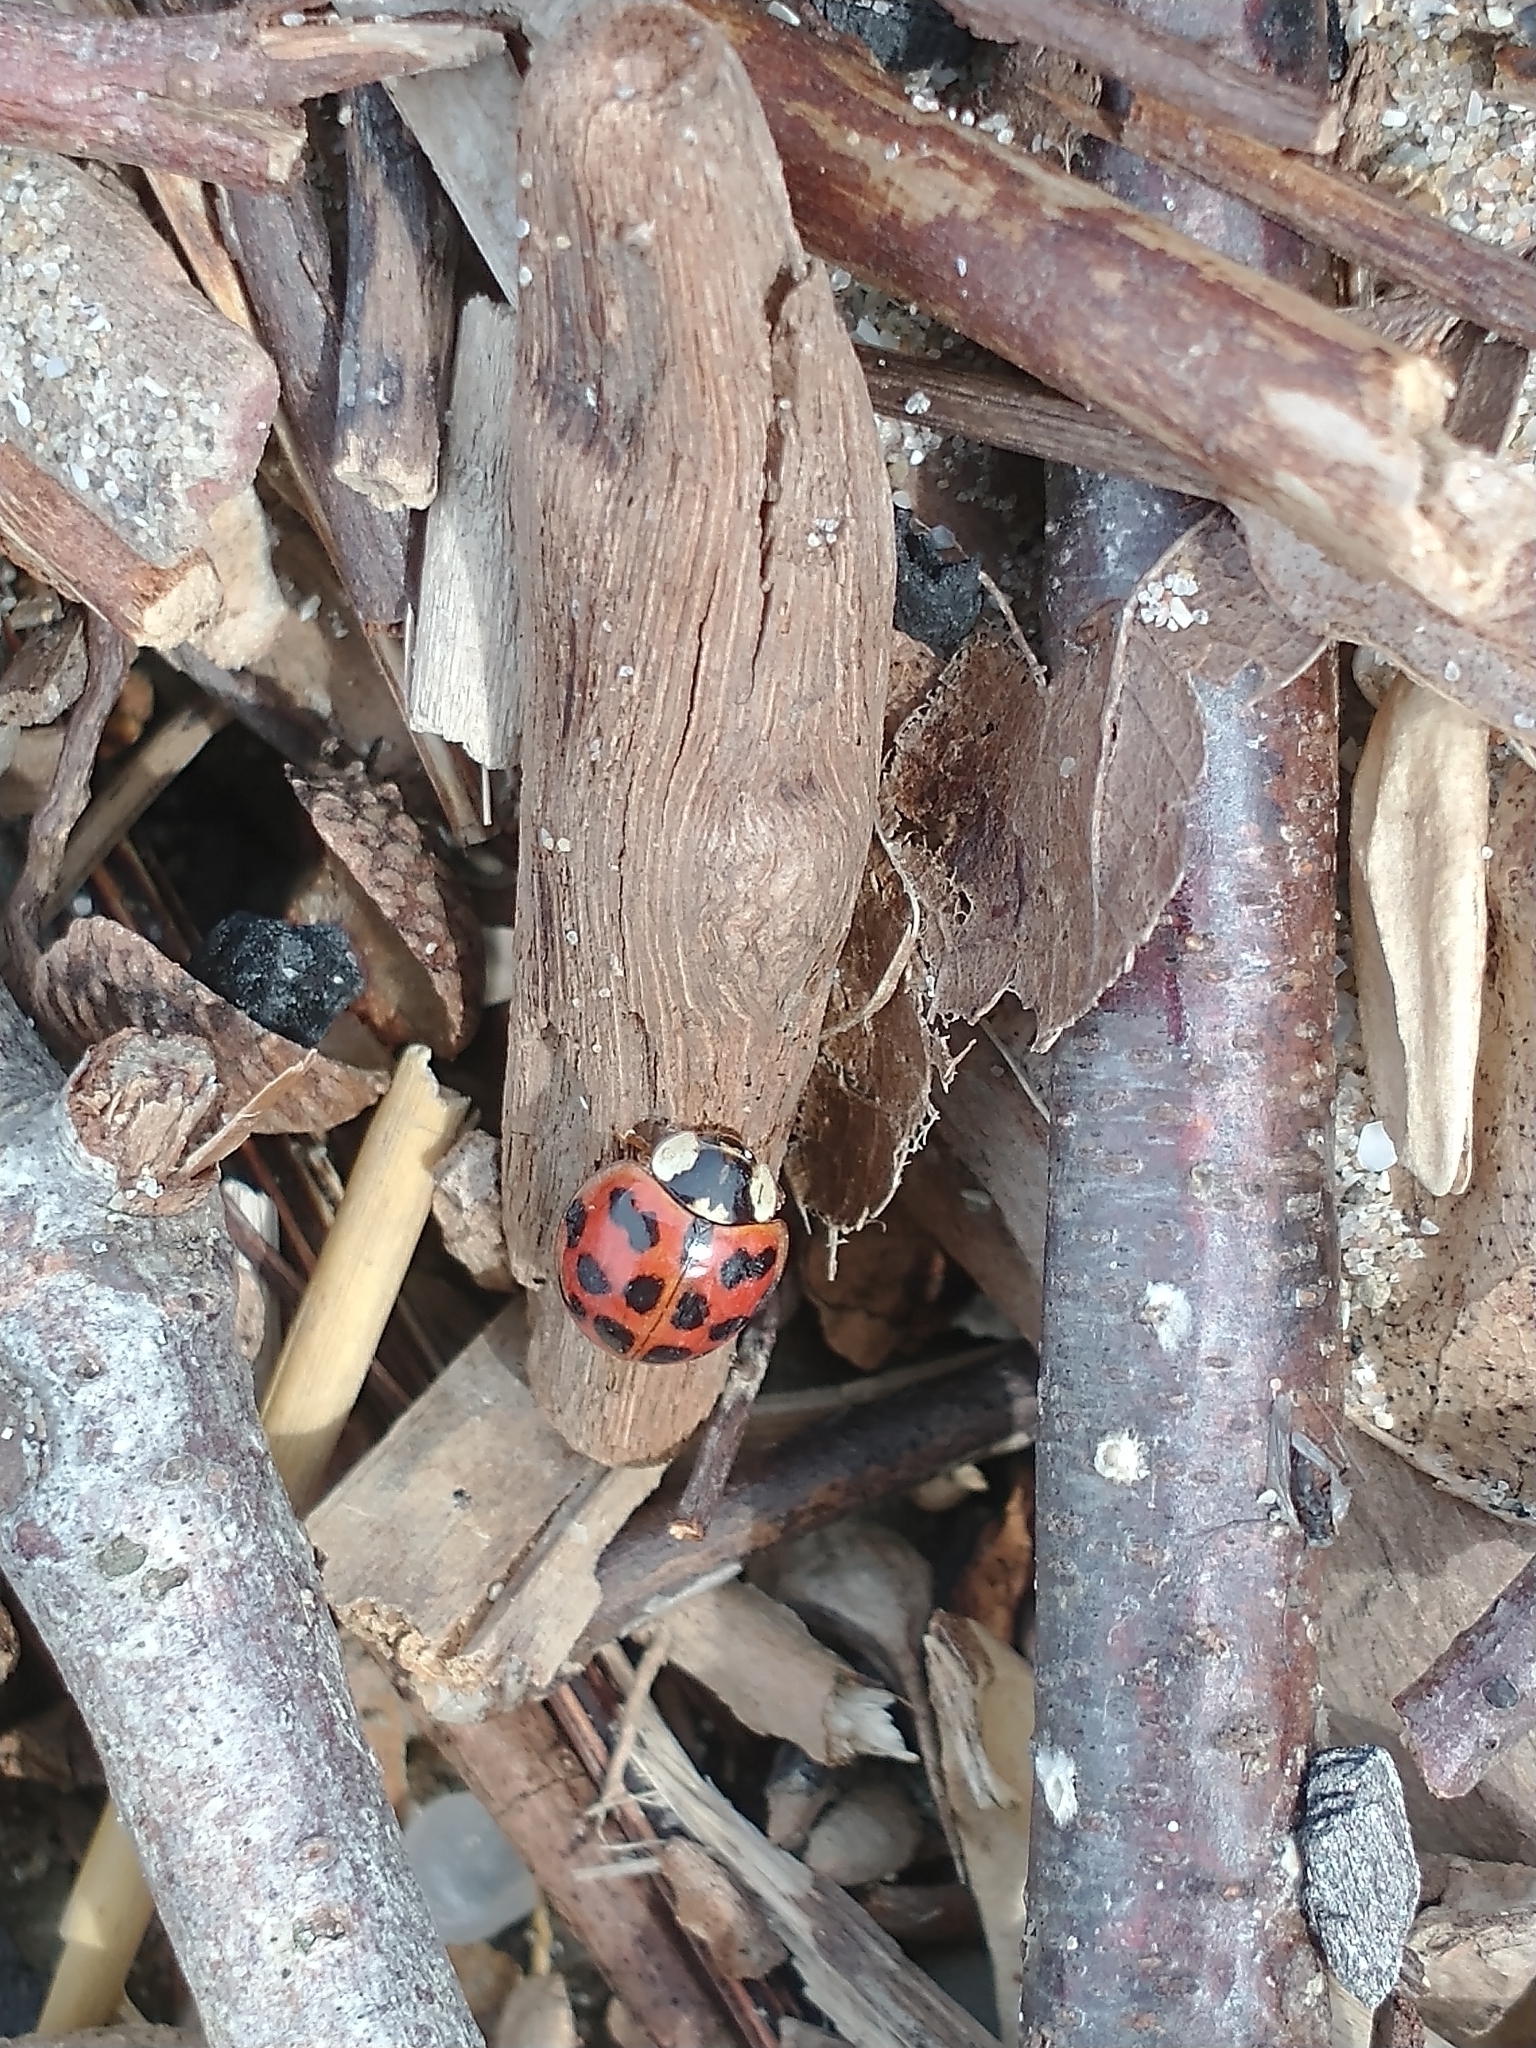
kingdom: Animalia
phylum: Arthropoda
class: Insecta
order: Coleoptera
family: Coccinellidae
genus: Harmonia
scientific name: Harmonia axyridis
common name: Harlequin ladybird
